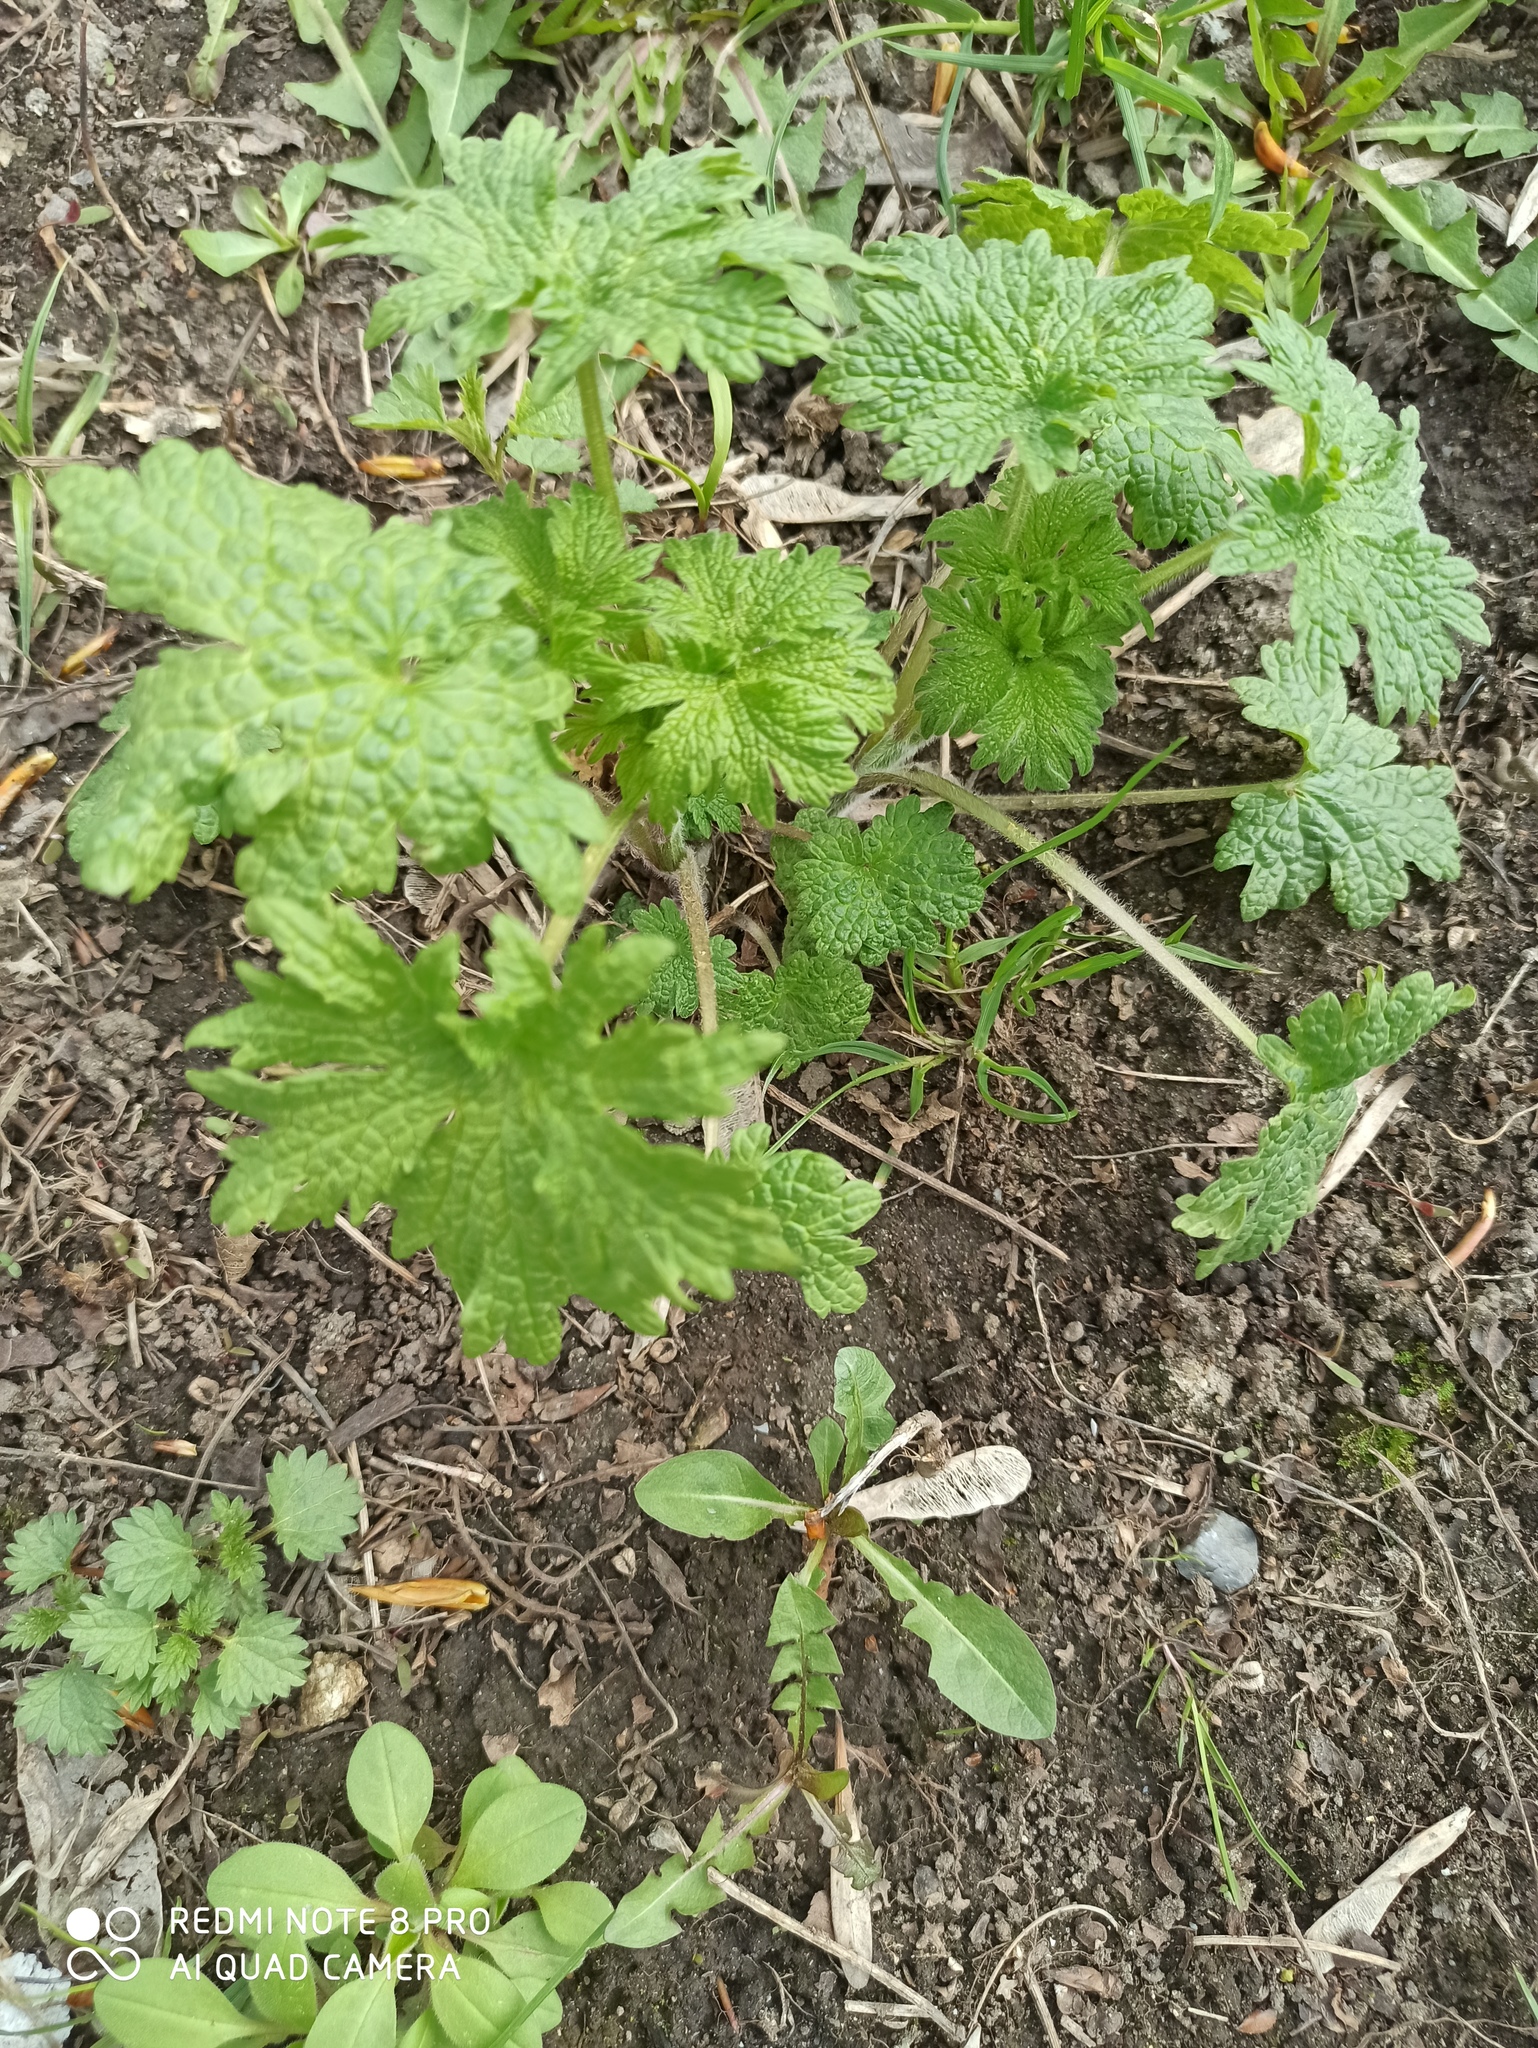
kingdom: Plantae
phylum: Tracheophyta
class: Magnoliopsida
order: Lamiales
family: Lamiaceae
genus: Leonurus
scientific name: Leonurus quinquelobatus
